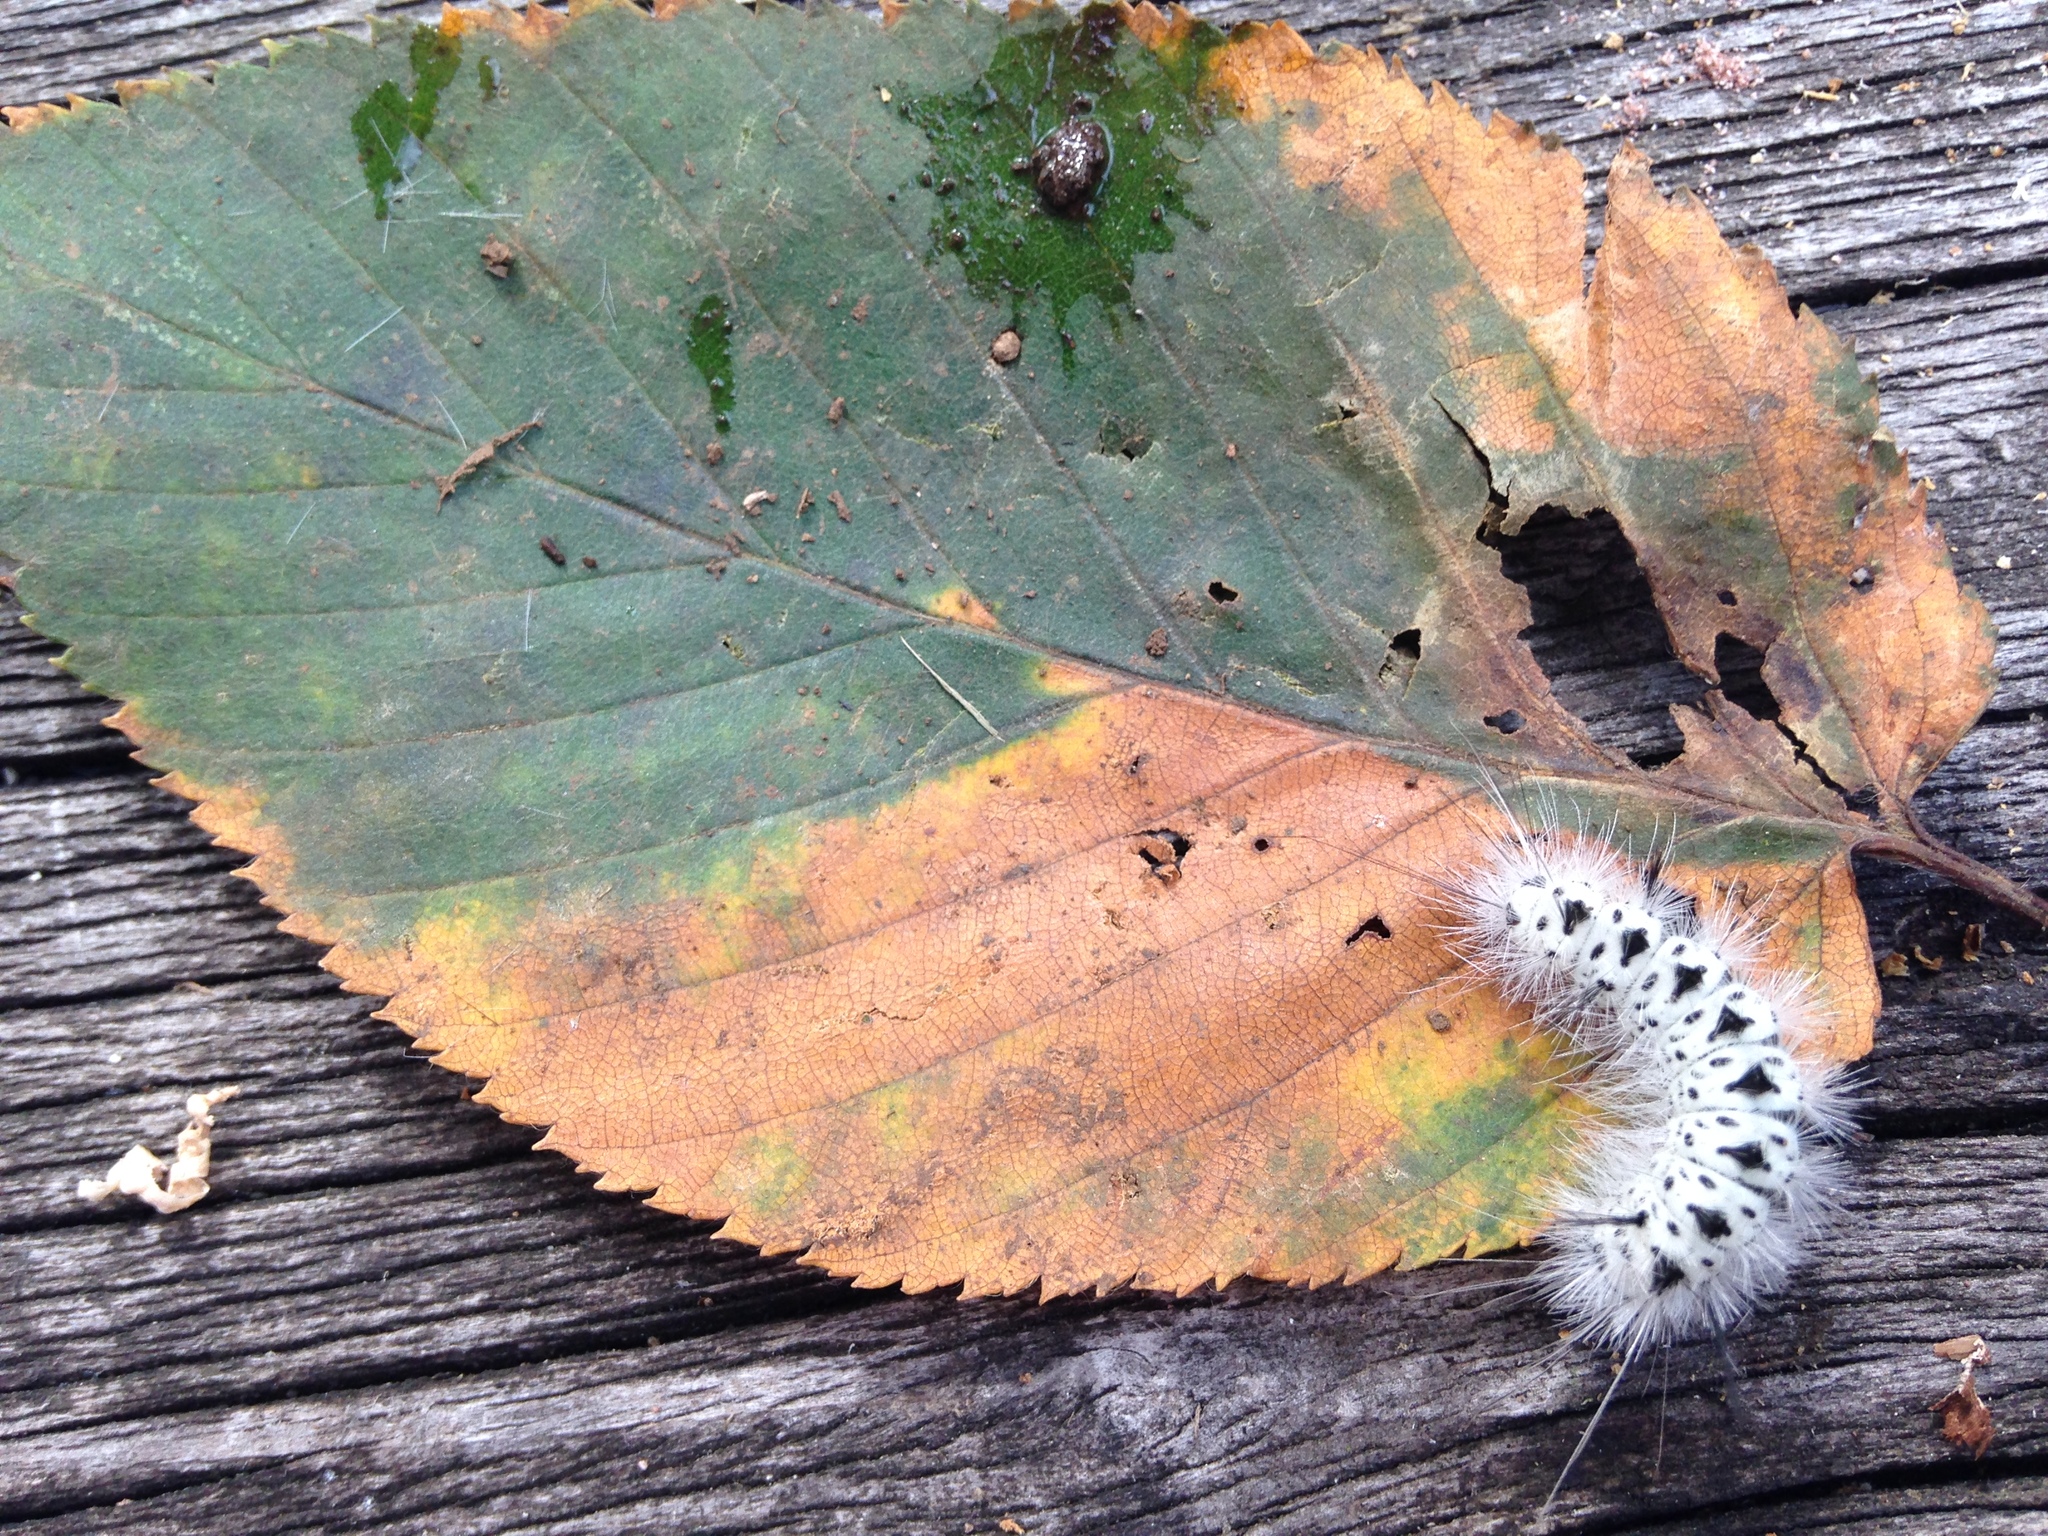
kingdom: Animalia
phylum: Arthropoda
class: Insecta
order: Lepidoptera
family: Erebidae
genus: Lophocampa
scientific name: Lophocampa caryae
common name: Hickory tussock moth
